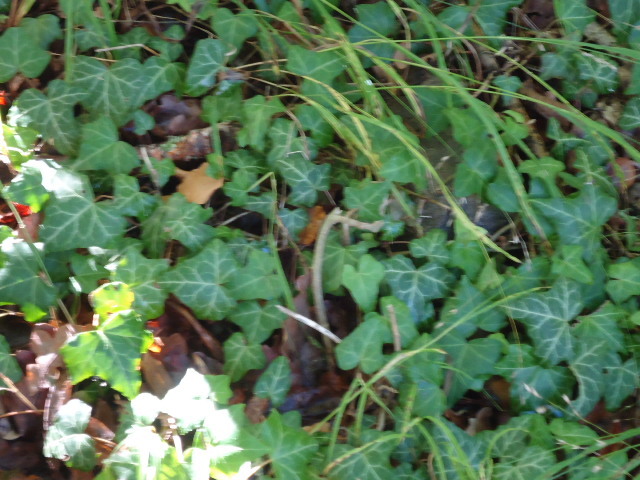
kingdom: Plantae
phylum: Tracheophyta
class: Magnoliopsida
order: Apiales
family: Araliaceae
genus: Hedera
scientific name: Hedera helix
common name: Ivy
